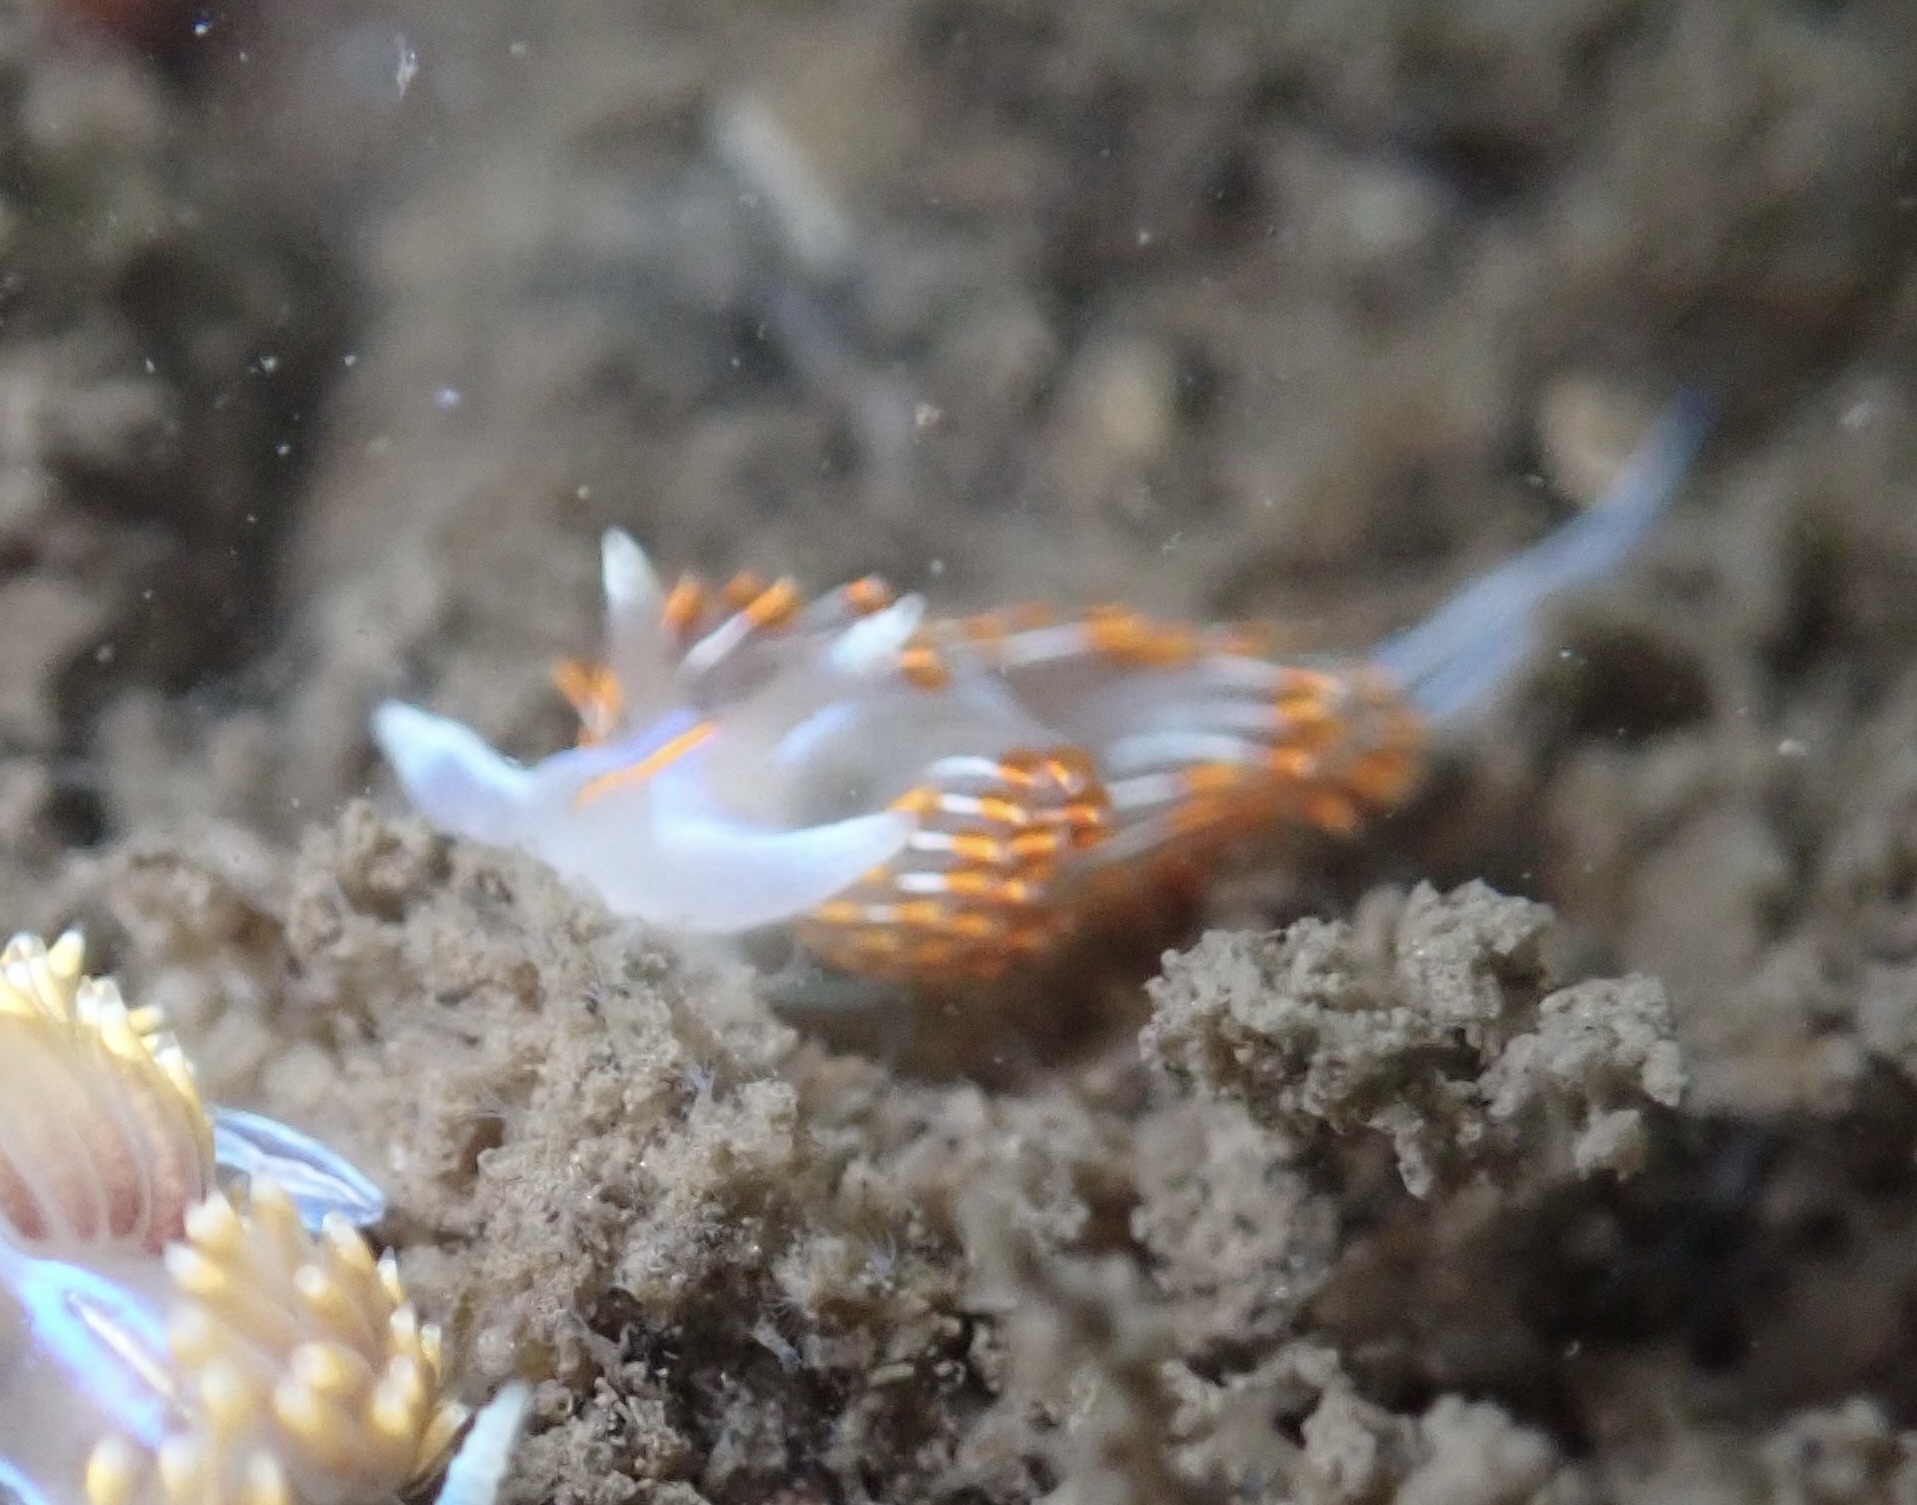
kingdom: Animalia
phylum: Mollusca
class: Gastropoda
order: Nudibranchia
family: Myrrhinidae
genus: Hermissenda
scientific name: Hermissenda crassicornis
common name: Hermissenda
